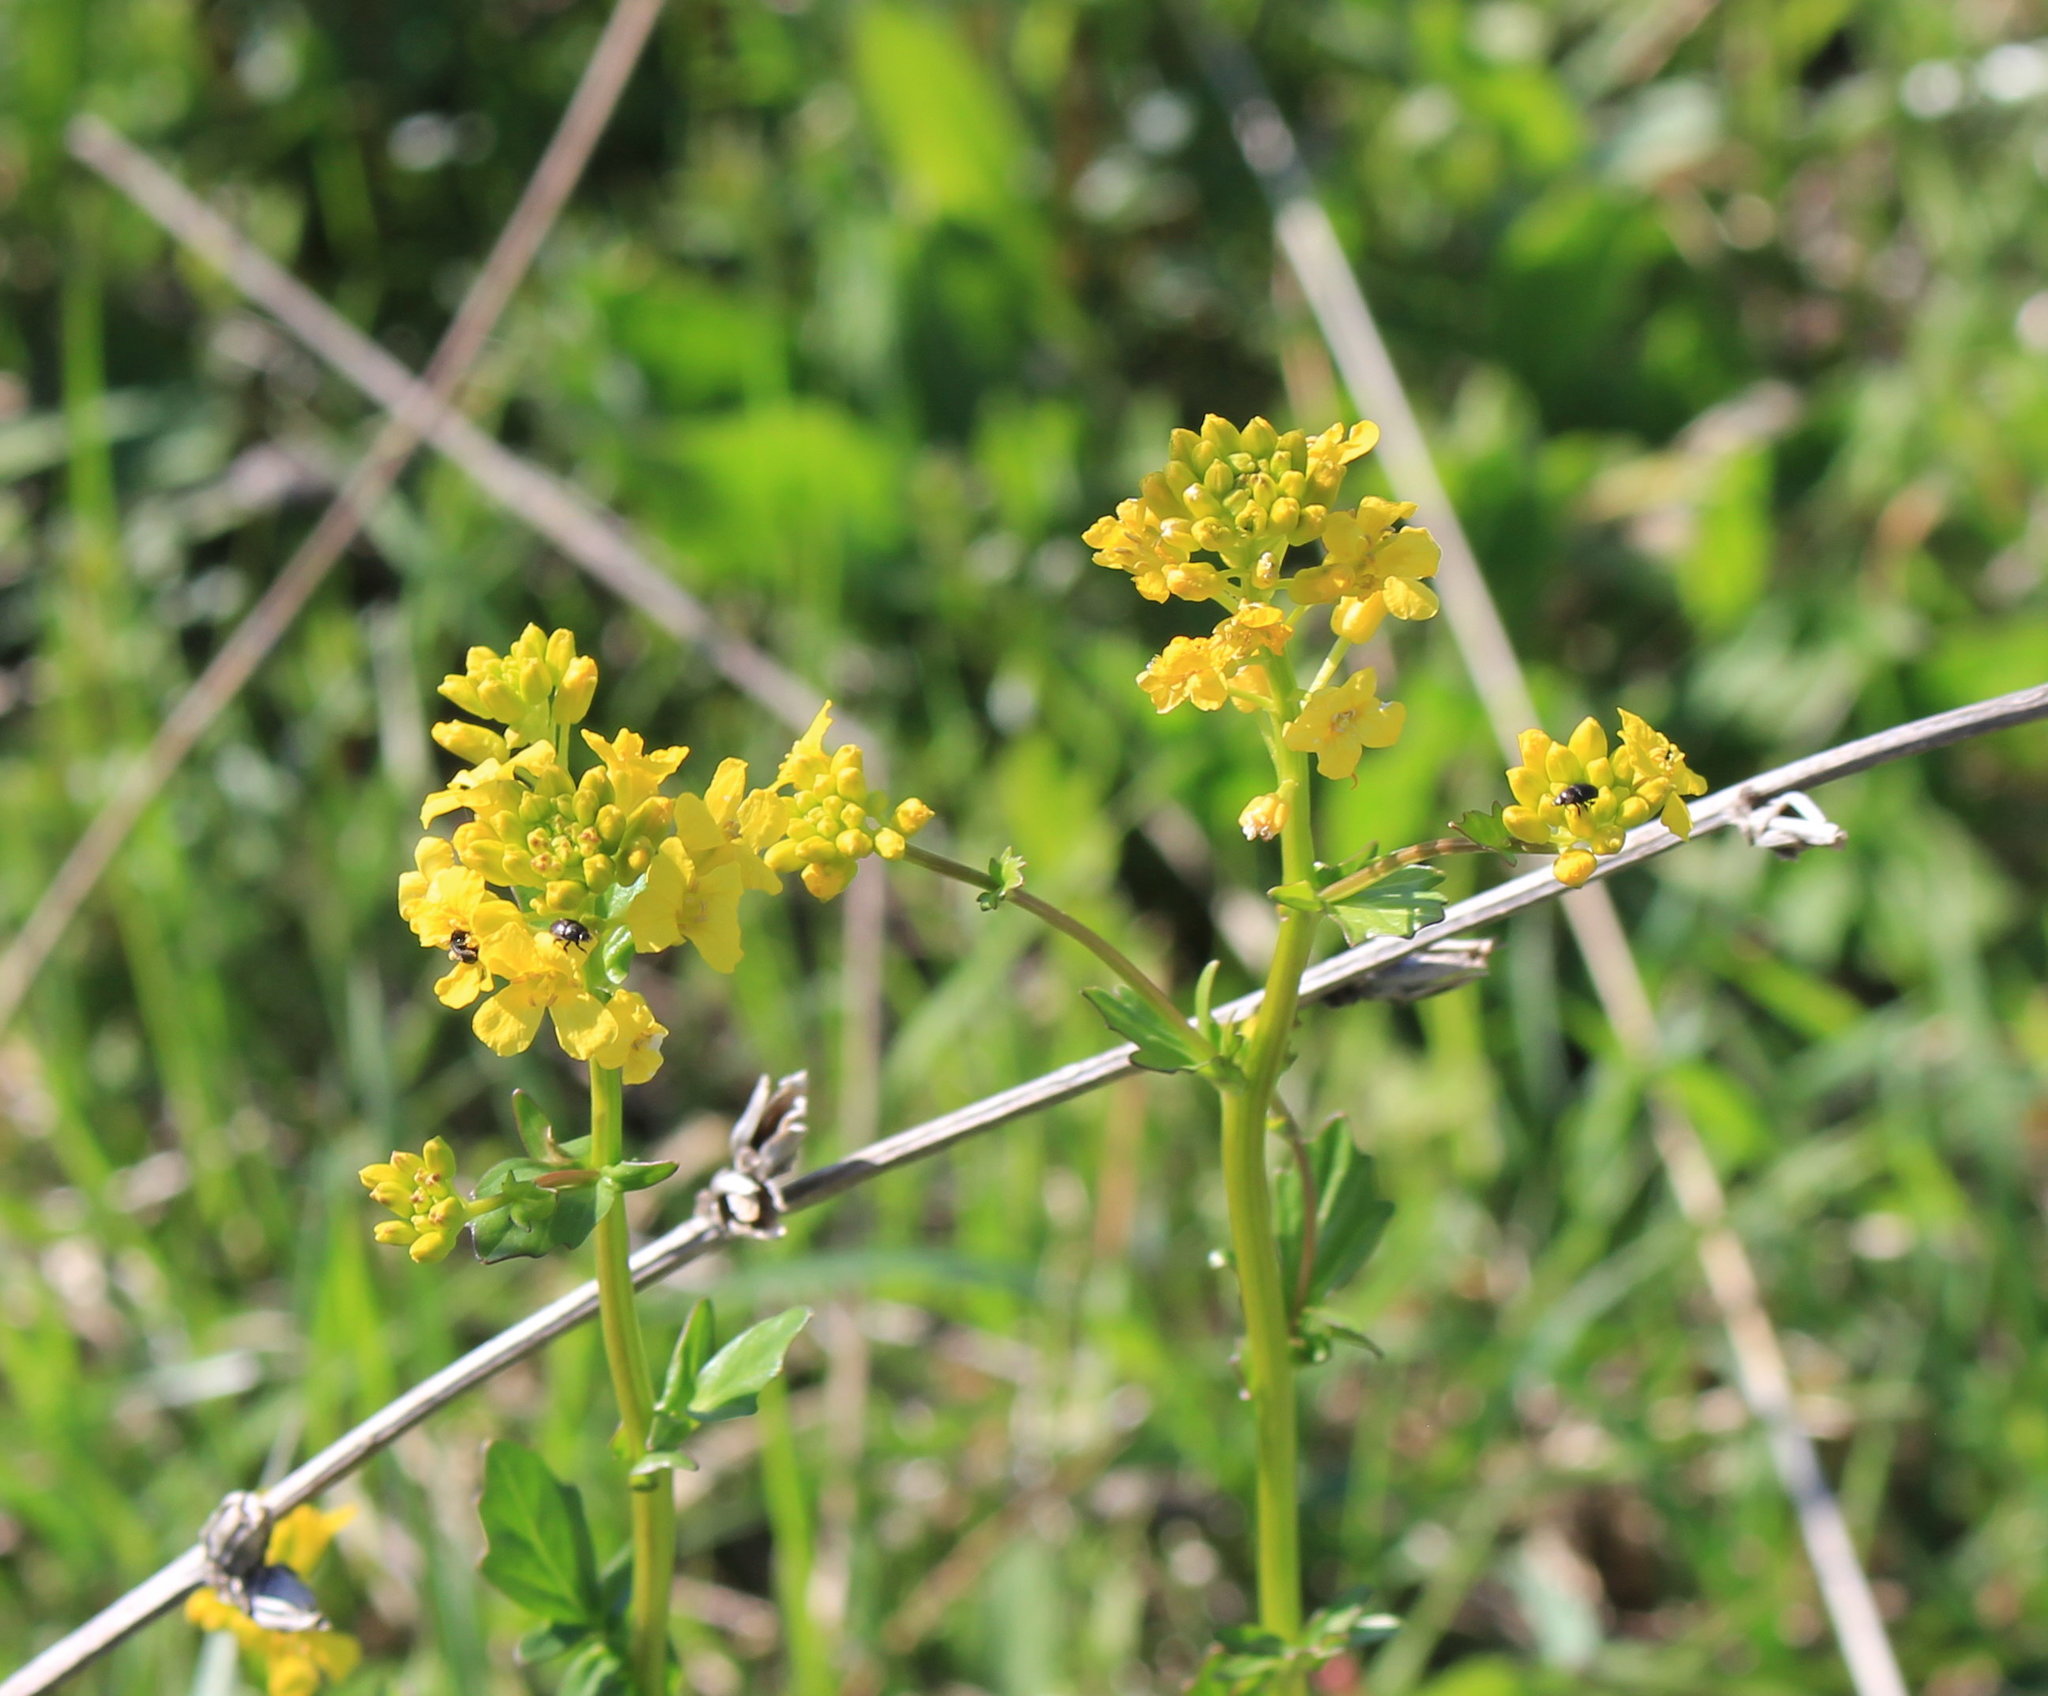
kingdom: Plantae
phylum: Tracheophyta
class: Magnoliopsida
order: Brassicales
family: Brassicaceae
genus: Barbarea
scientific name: Barbarea vulgaris
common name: Cressy-greens
